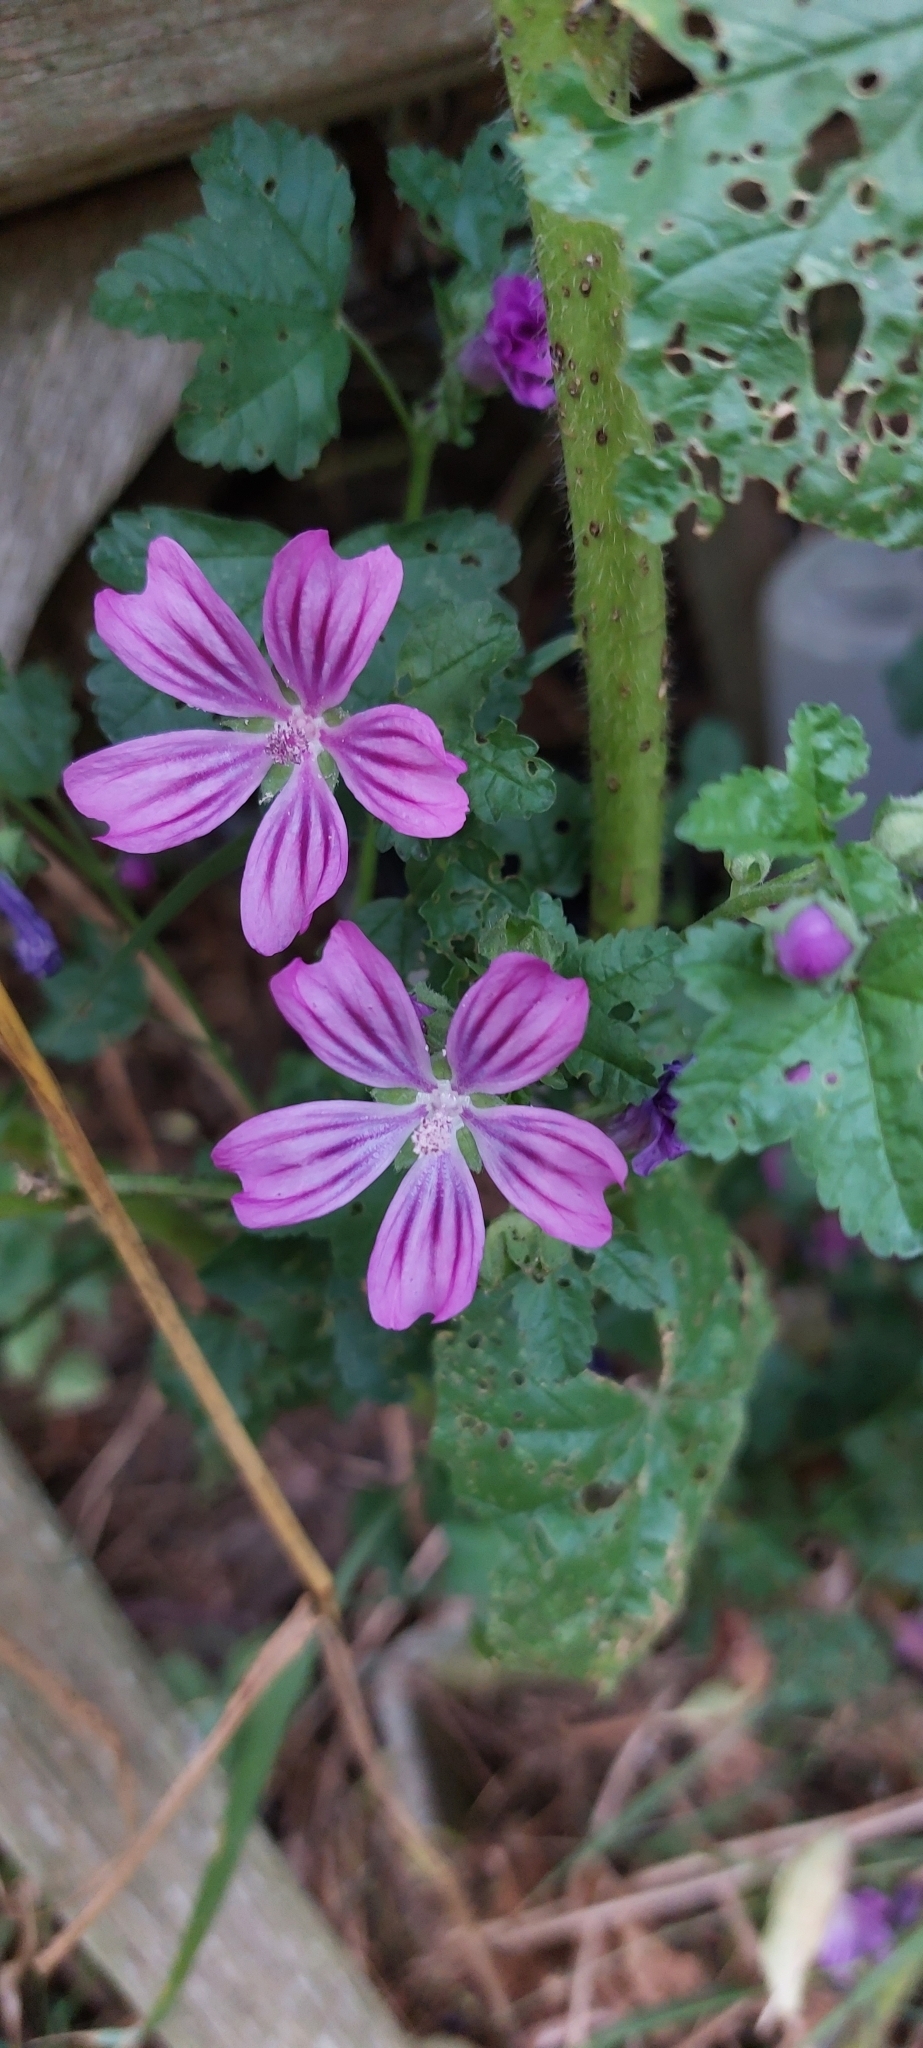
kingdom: Plantae
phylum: Tracheophyta
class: Magnoliopsida
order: Malvales
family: Malvaceae
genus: Malva
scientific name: Malva sylvestris
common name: Common mallow
